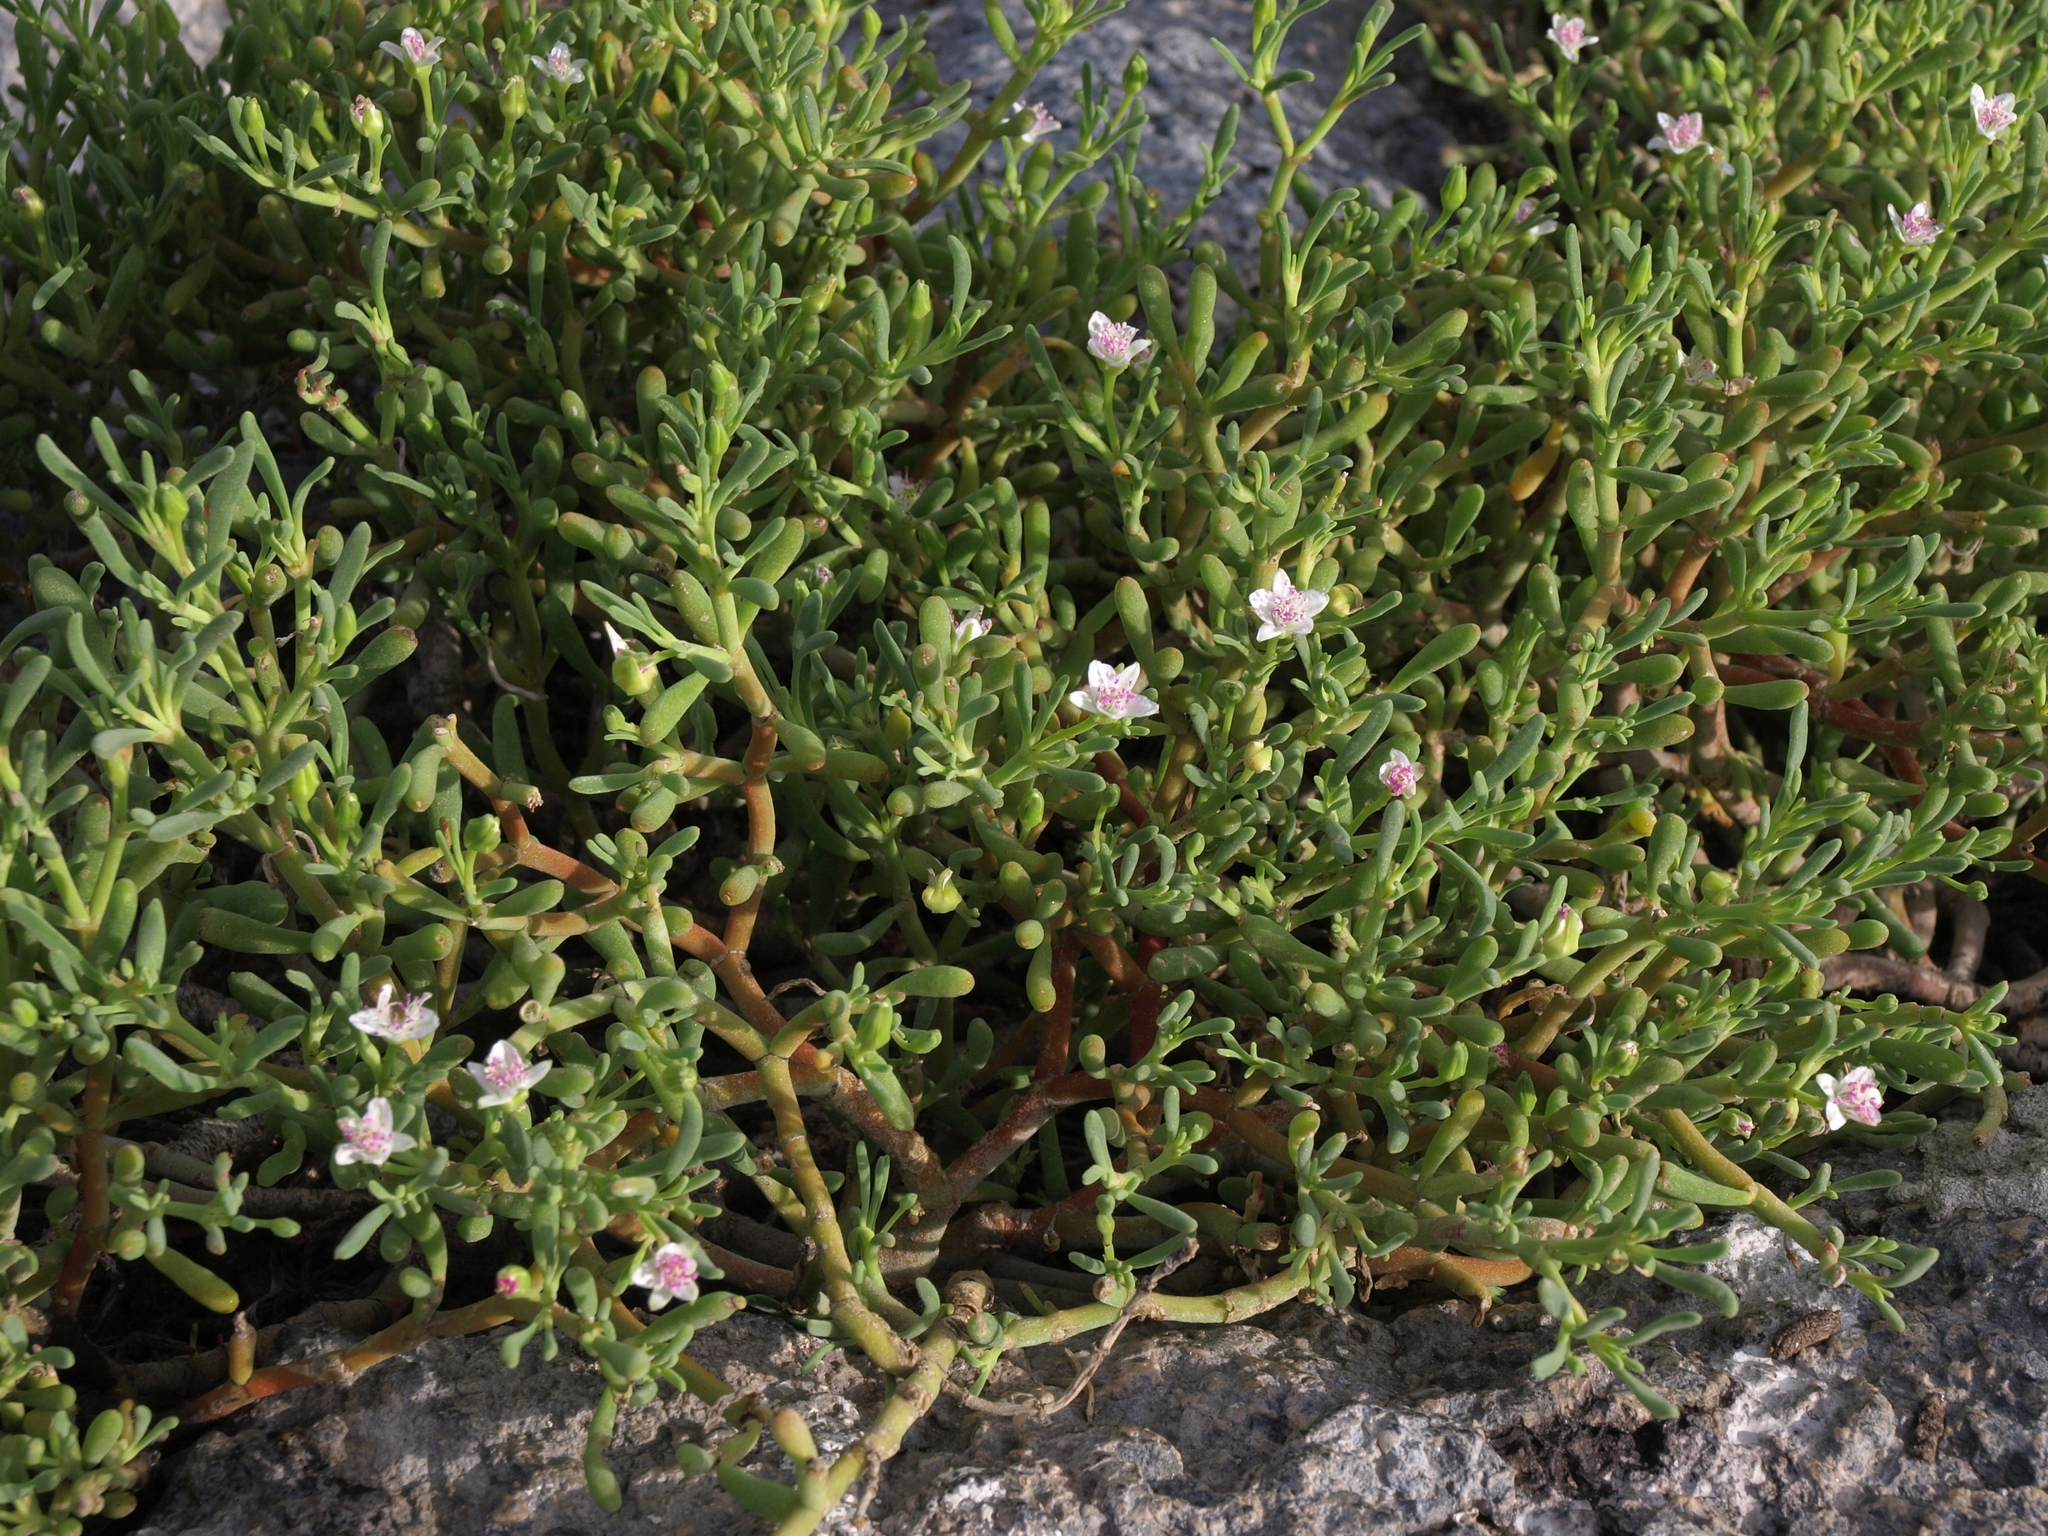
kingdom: Plantae
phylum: Tracheophyta
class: Magnoliopsida
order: Caryophyllales
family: Aizoaceae
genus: Sesuvium
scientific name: Sesuvium edmonstonei
